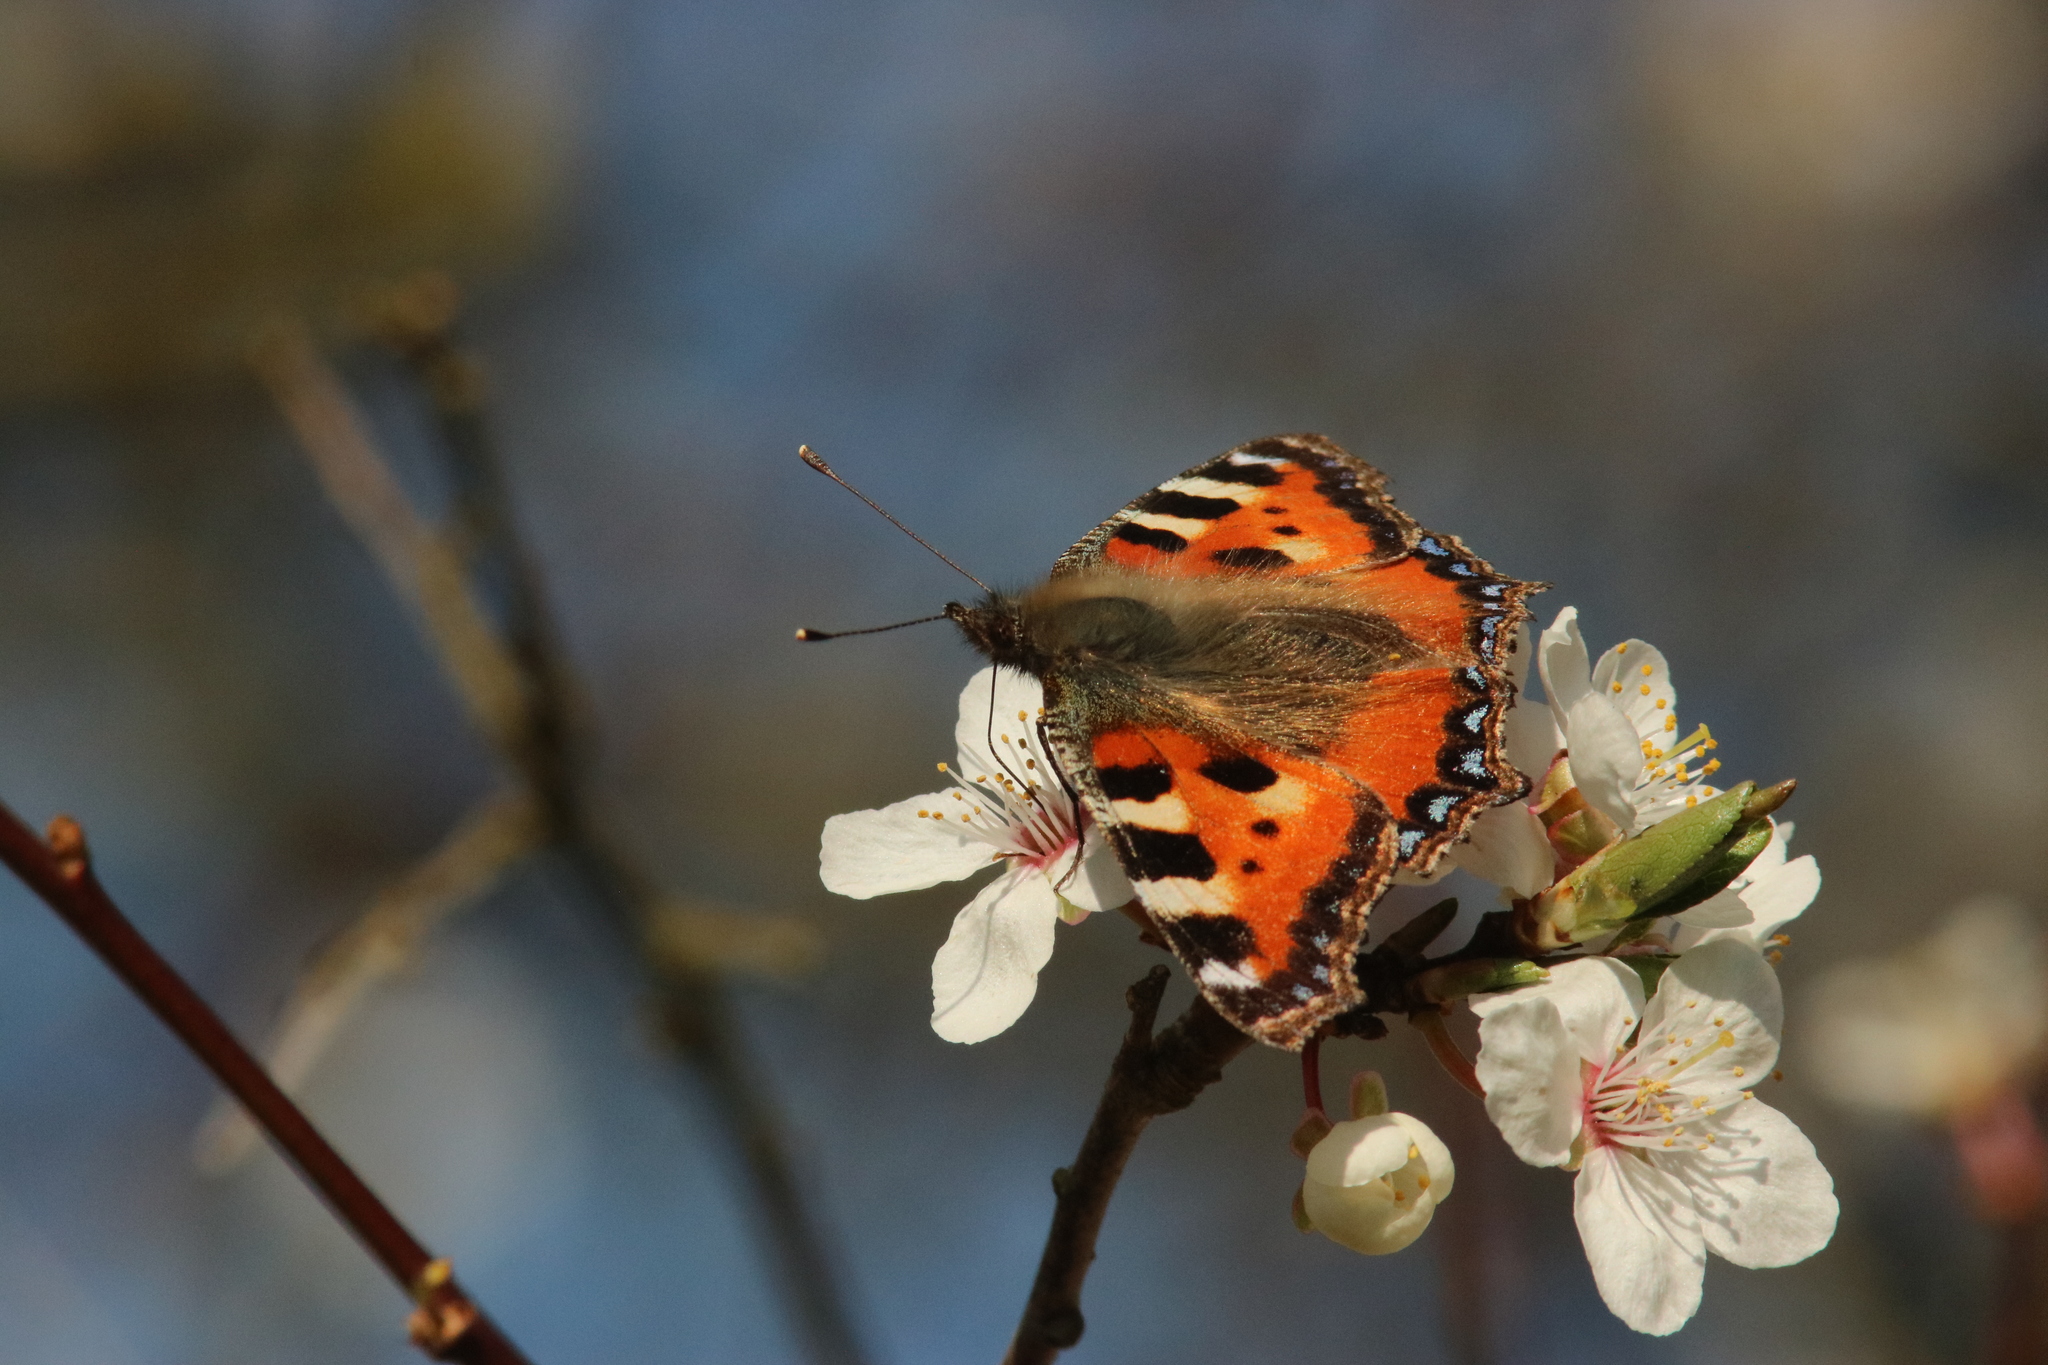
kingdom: Animalia
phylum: Arthropoda
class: Insecta
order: Lepidoptera
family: Nymphalidae
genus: Aglais
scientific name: Aglais urticae
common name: Small tortoiseshell
